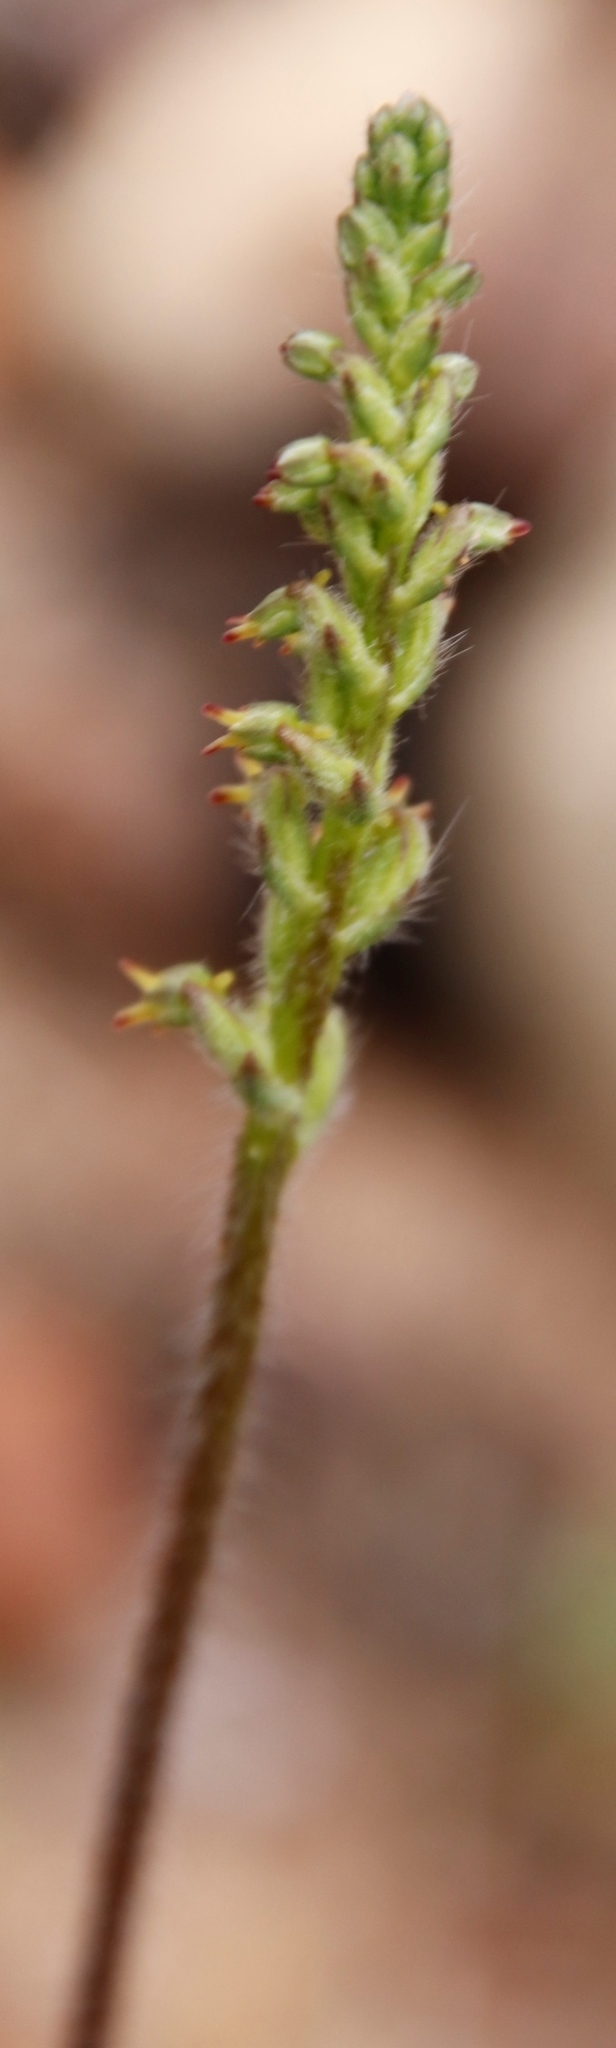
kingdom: Plantae
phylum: Tracheophyta
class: Liliopsida
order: Asparagales
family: Orchidaceae
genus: Holothrix
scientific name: Holothrix villosa
